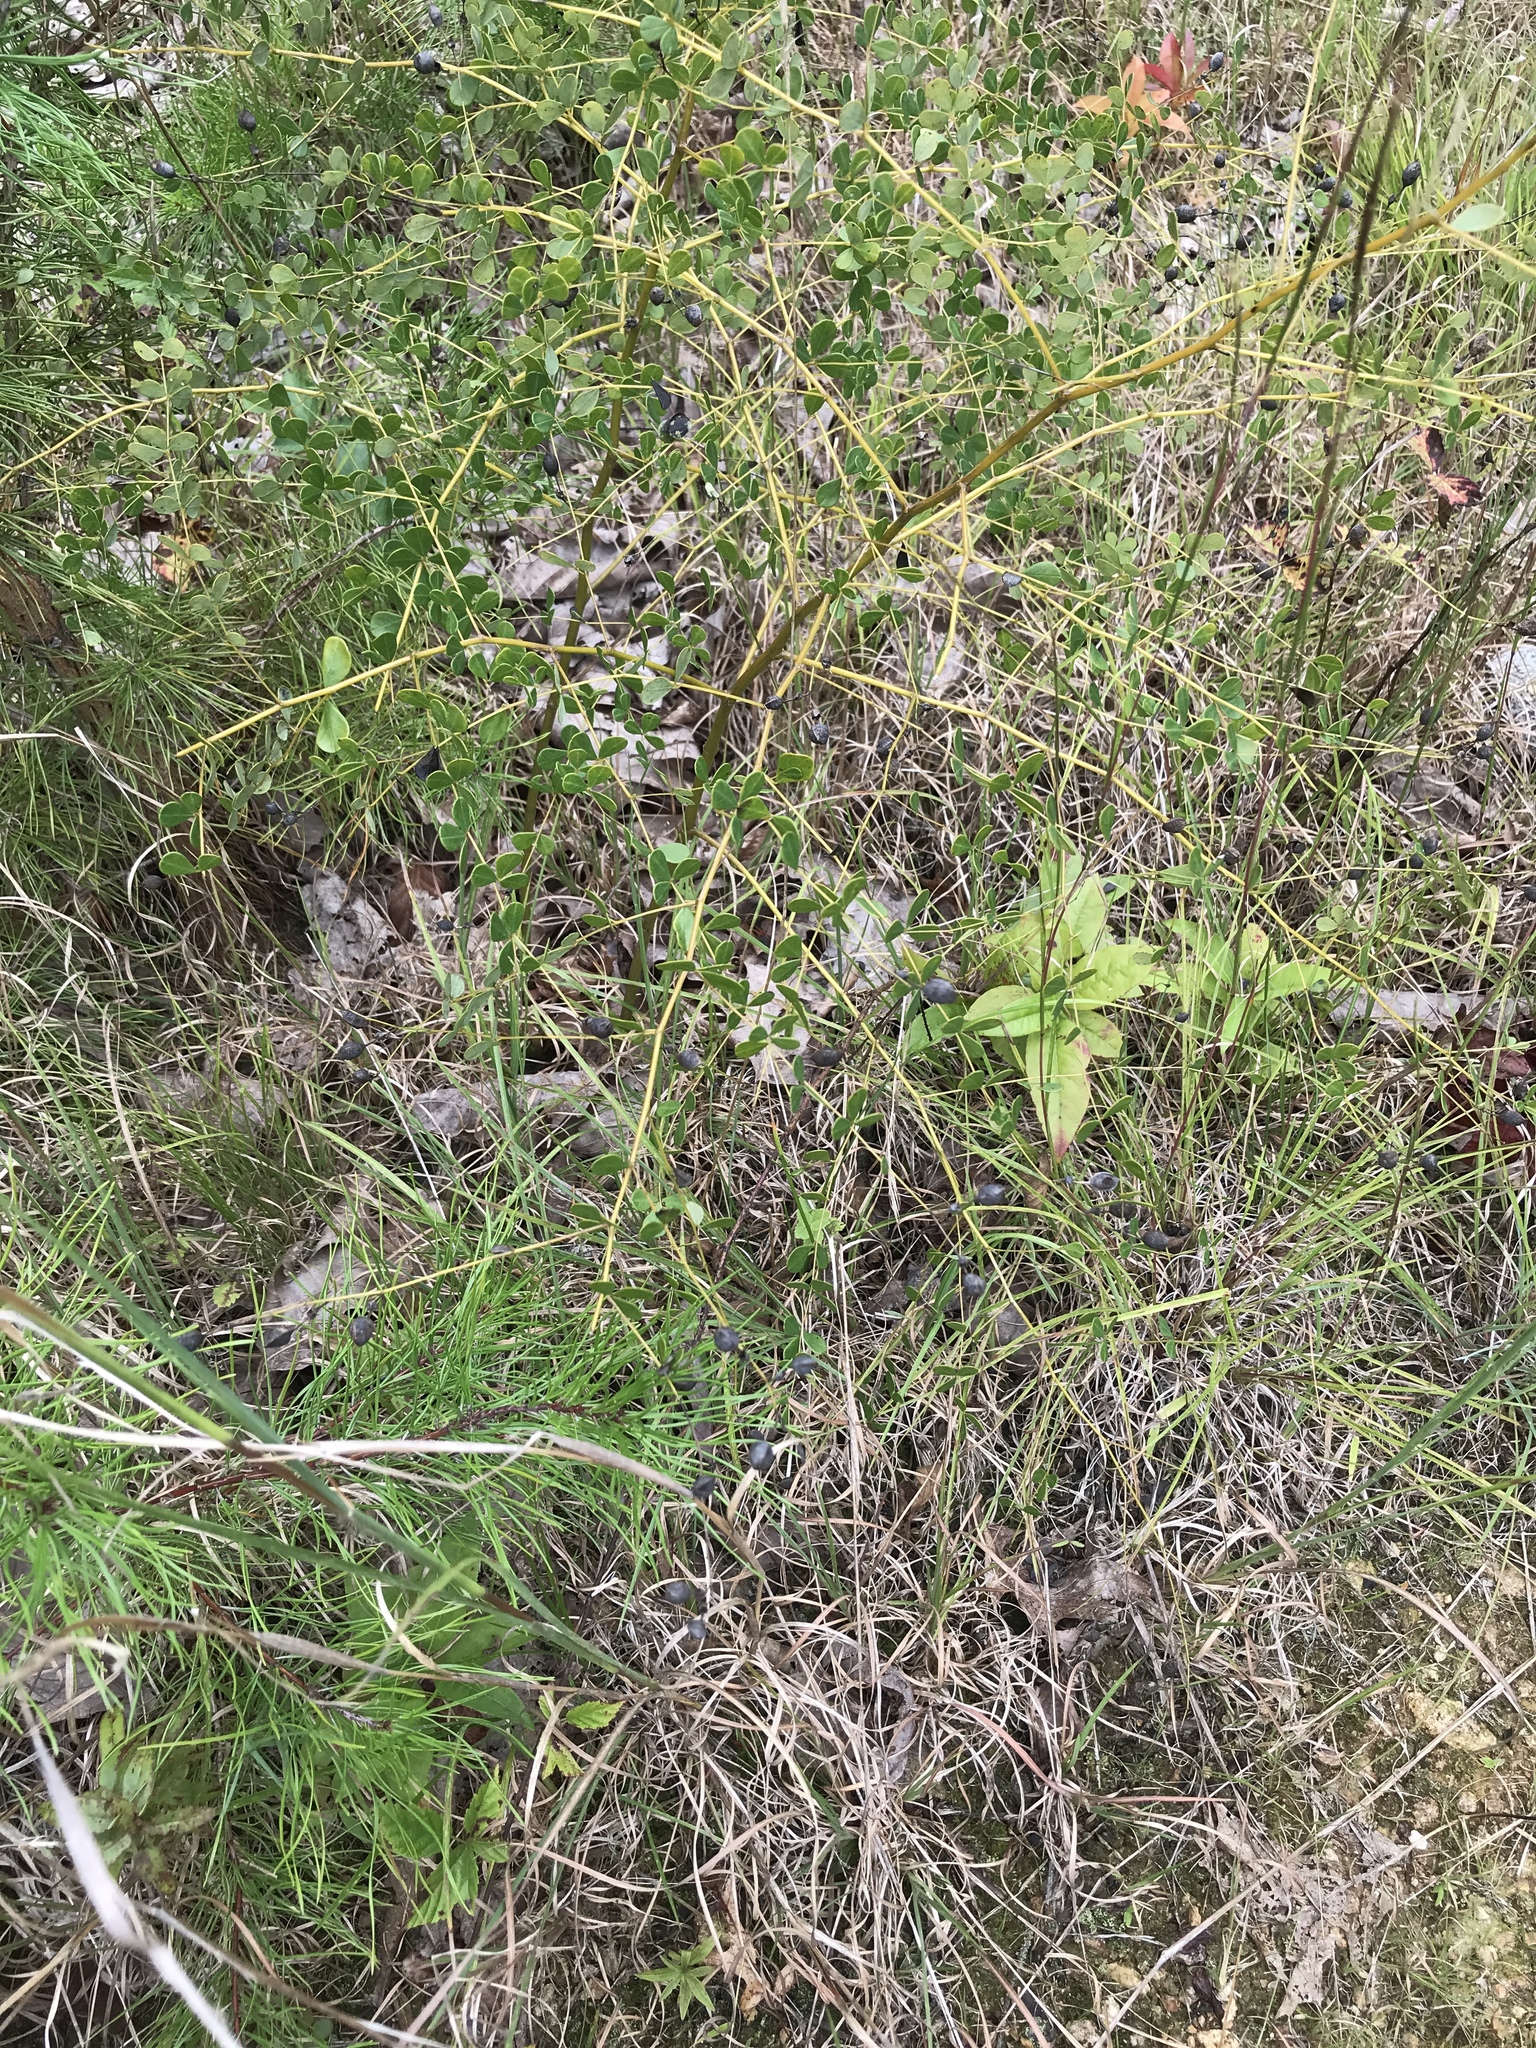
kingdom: Plantae
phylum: Tracheophyta
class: Magnoliopsida
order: Fabales
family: Fabaceae
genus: Baptisia
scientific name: Baptisia tinctoria
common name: Wild indigo
